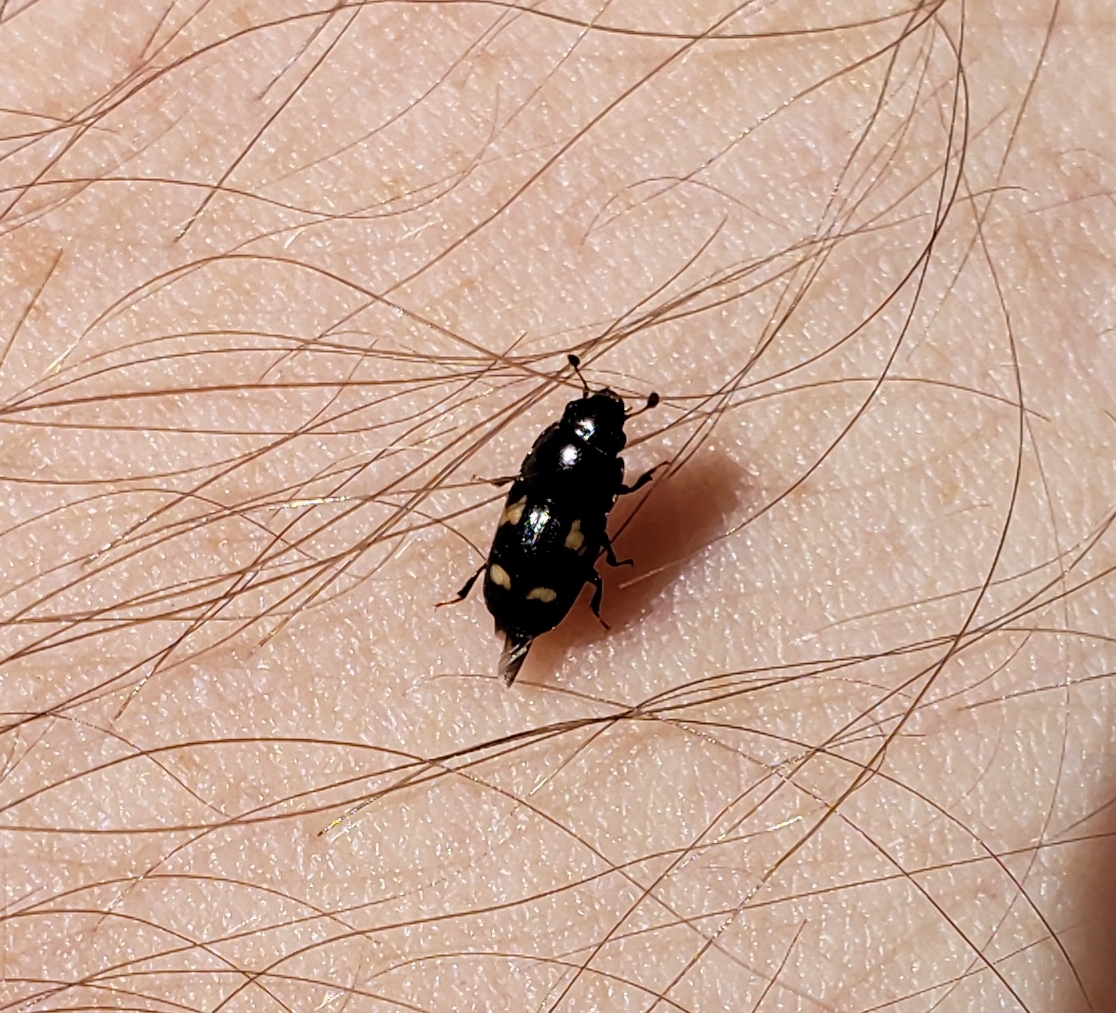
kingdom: Animalia
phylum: Arthropoda
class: Insecta
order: Coleoptera
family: Nitidulidae
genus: Glischrochilus
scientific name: Glischrochilus quadrisignatus
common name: Picnic beetle
